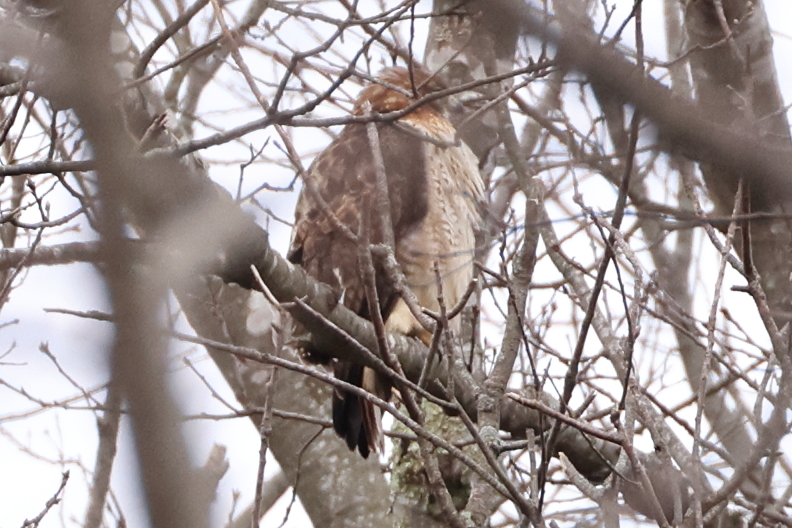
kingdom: Animalia
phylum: Chordata
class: Aves
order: Accipitriformes
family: Accipitridae
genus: Buteo
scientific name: Buteo jamaicensis
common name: Red-tailed hawk
